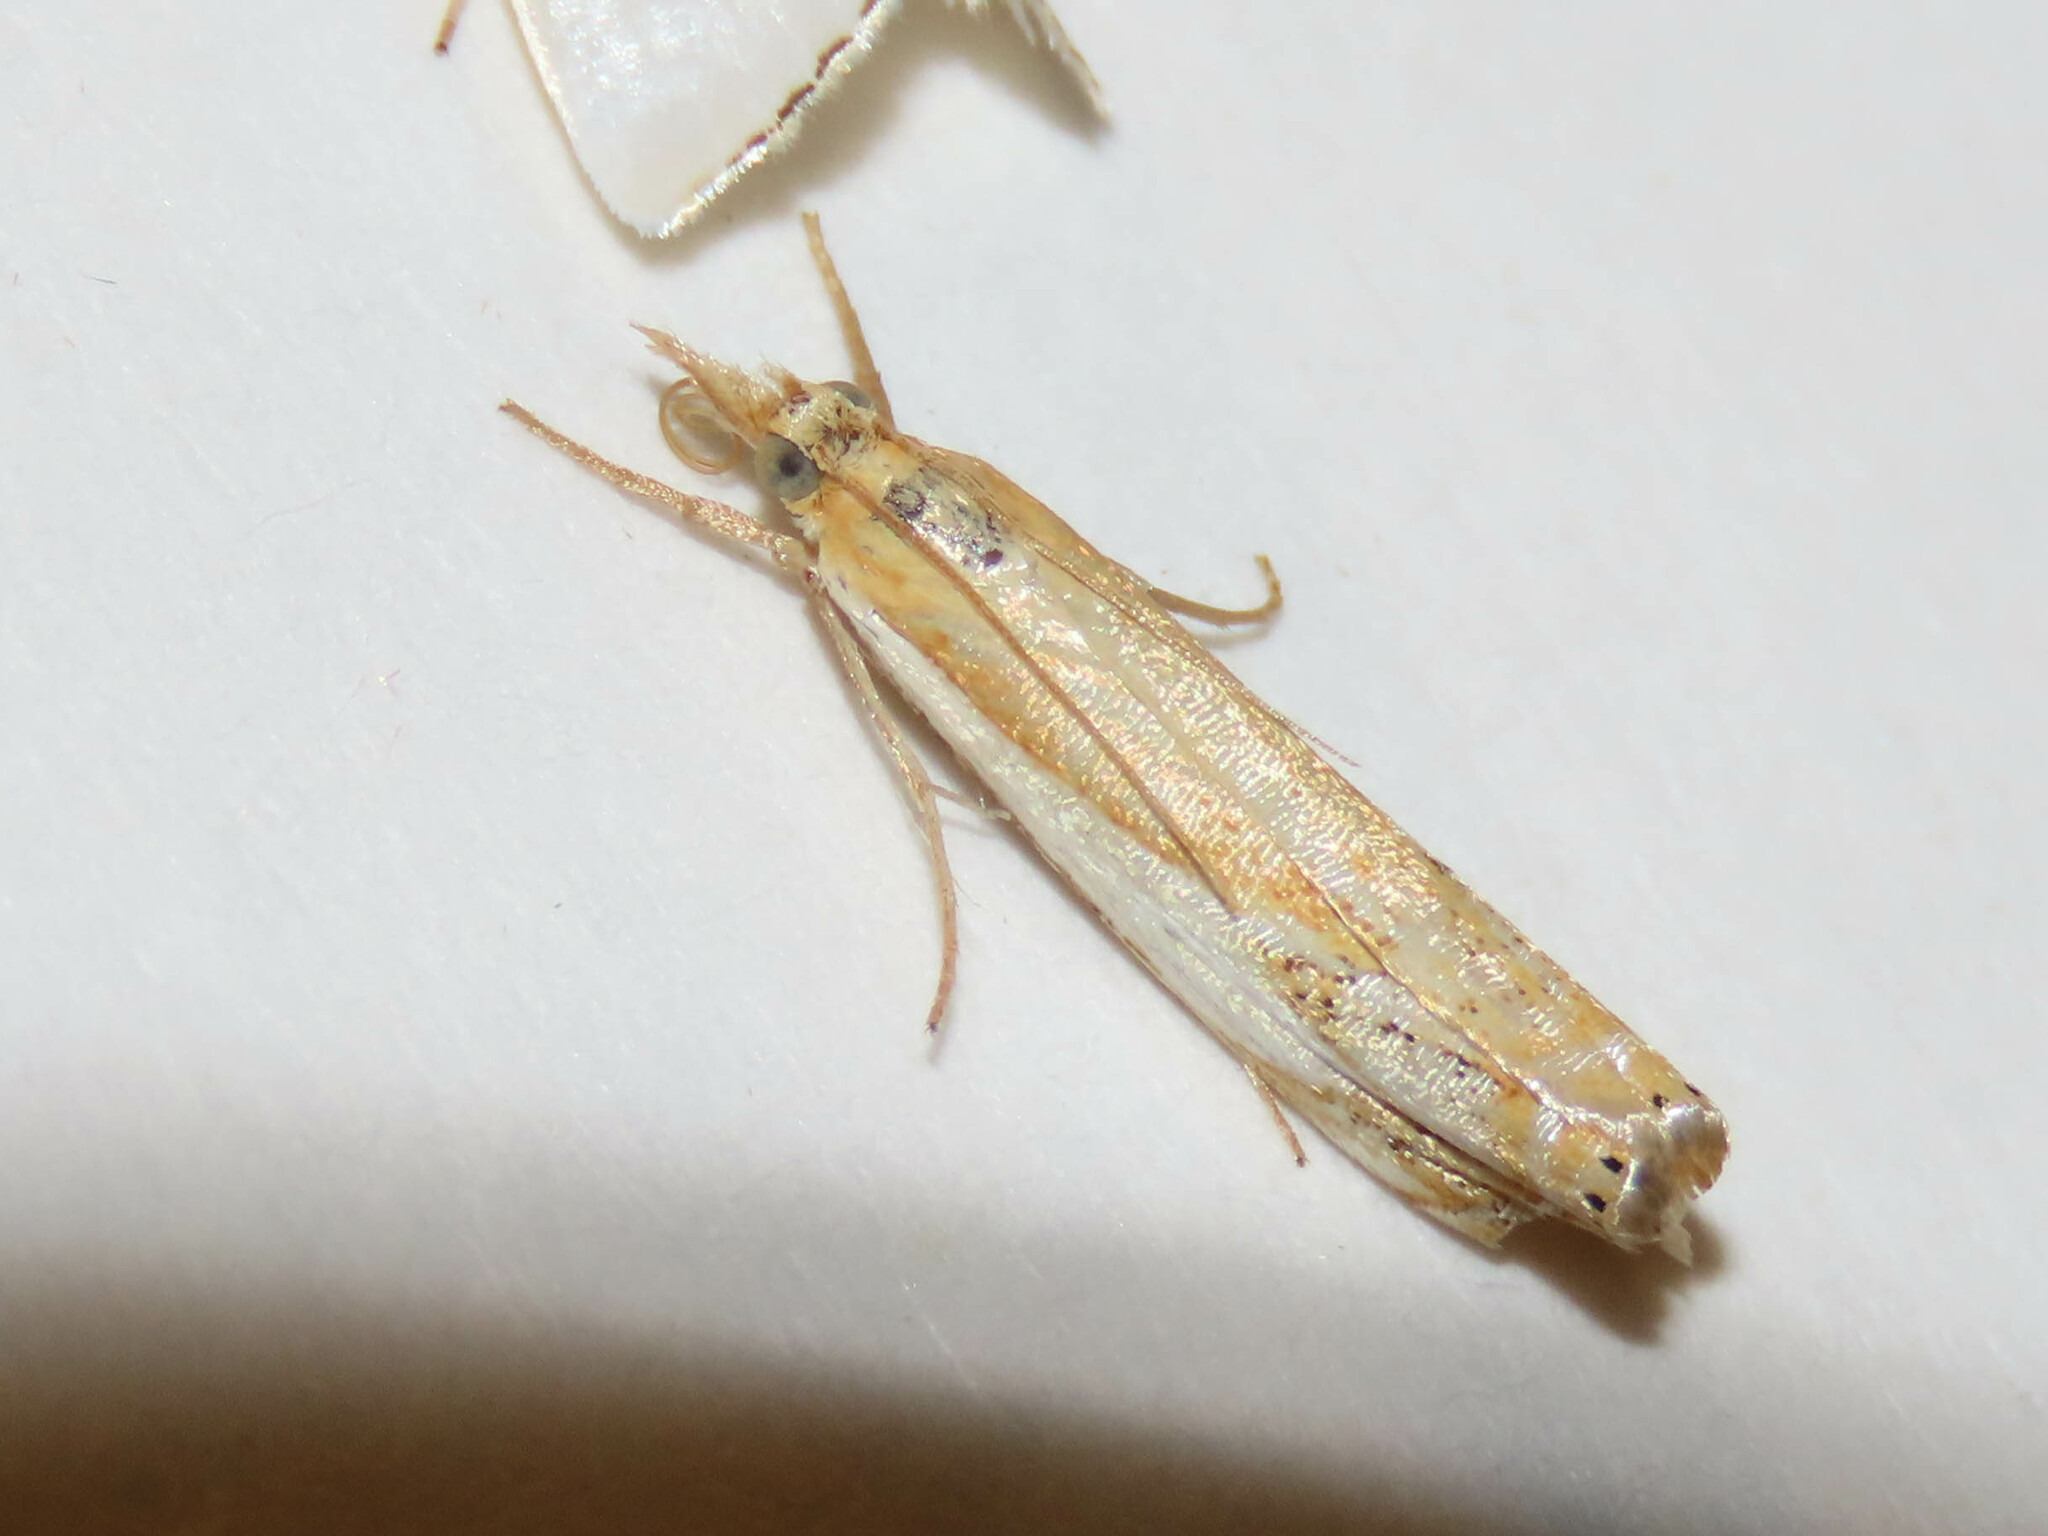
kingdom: Animalia
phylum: Arthropoda
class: Insecta
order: Lepidoptera
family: Crambidae
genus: Crambus
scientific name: Crambus agitatellus
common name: Double-banded grass-veneer
